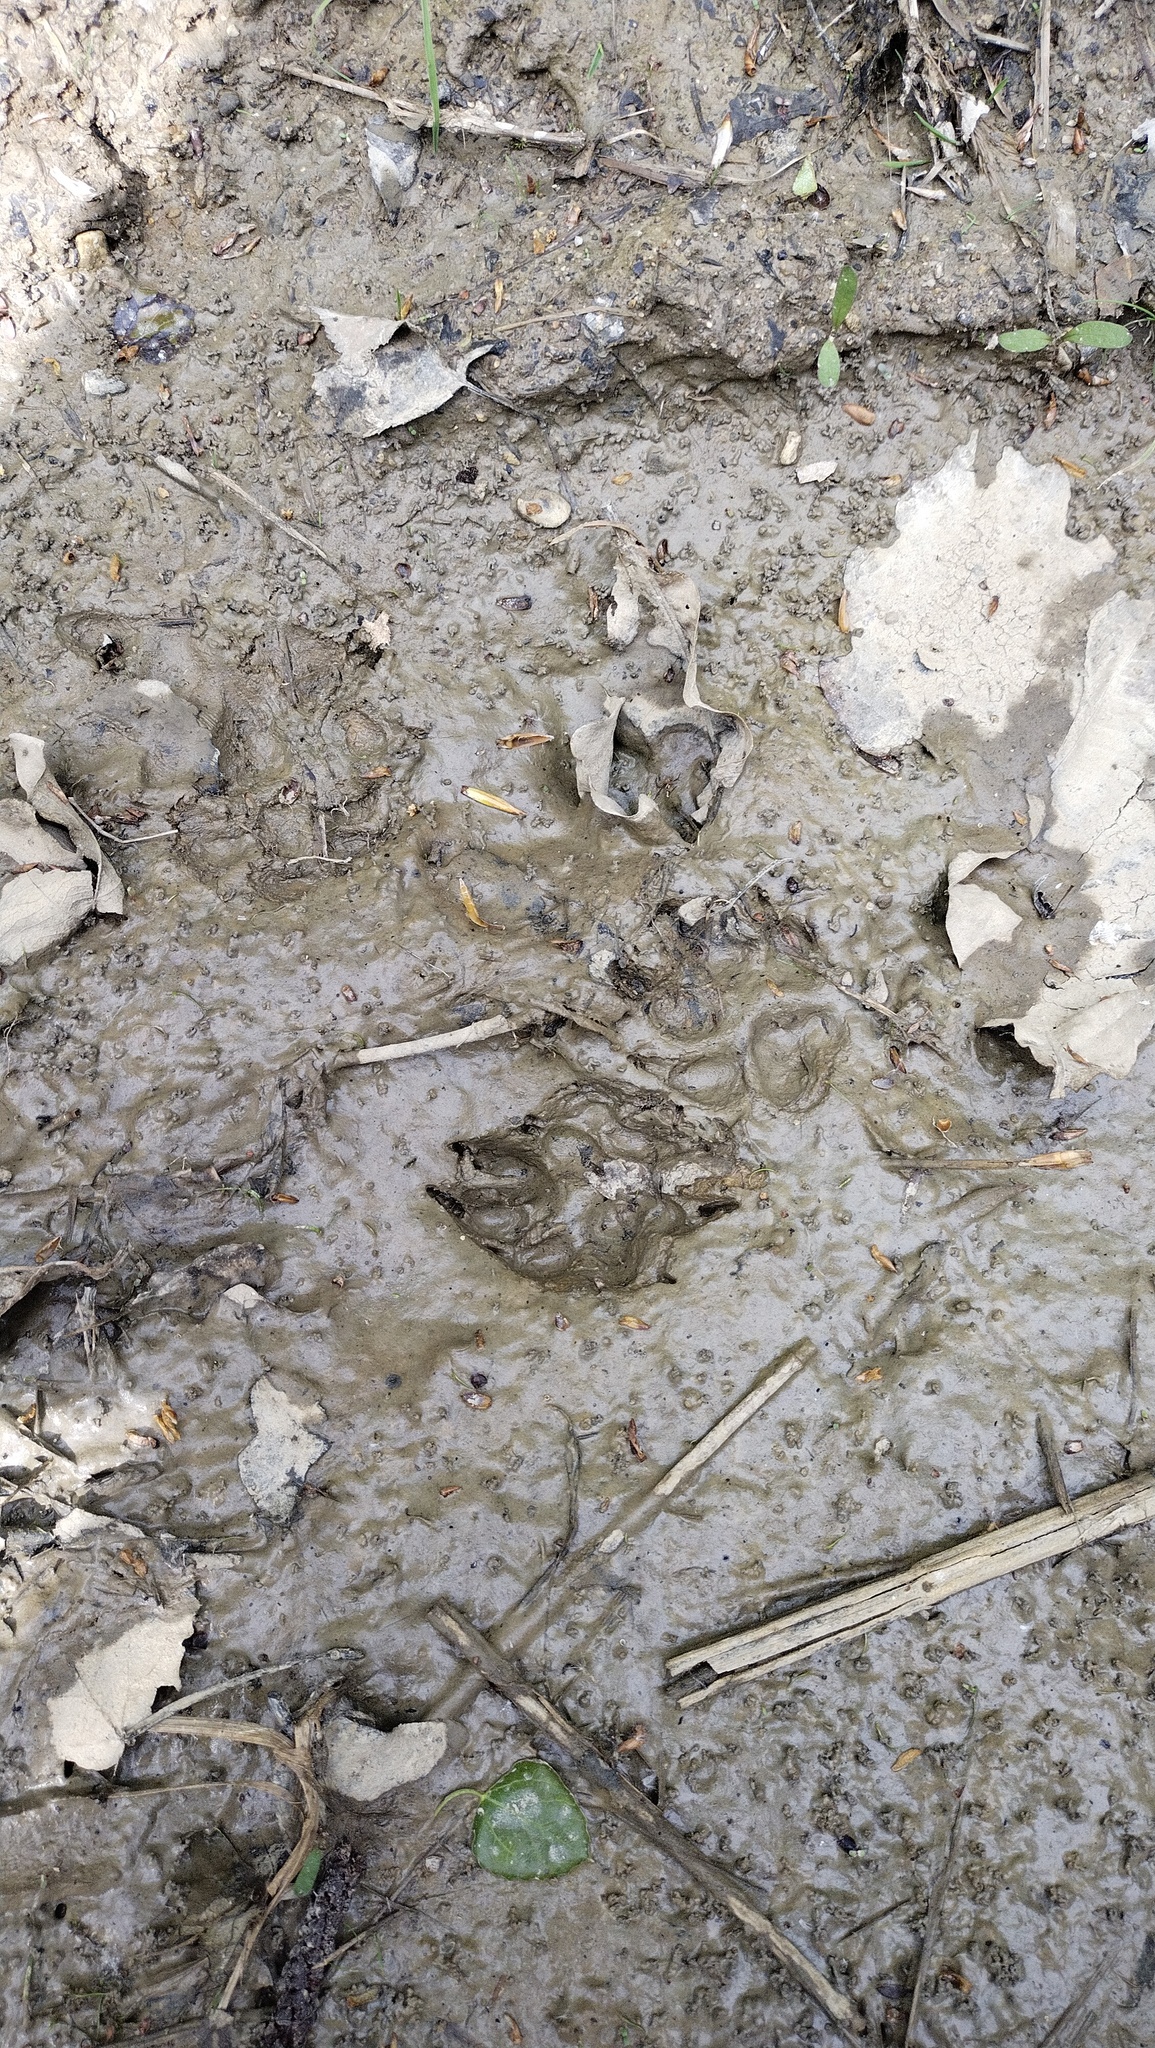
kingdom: Animalia
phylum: Chordata
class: Mammalia
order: Carnivora
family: Canidae
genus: Nyctereutes
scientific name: Nyctereutes procyonoides
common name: Raccoon dog
